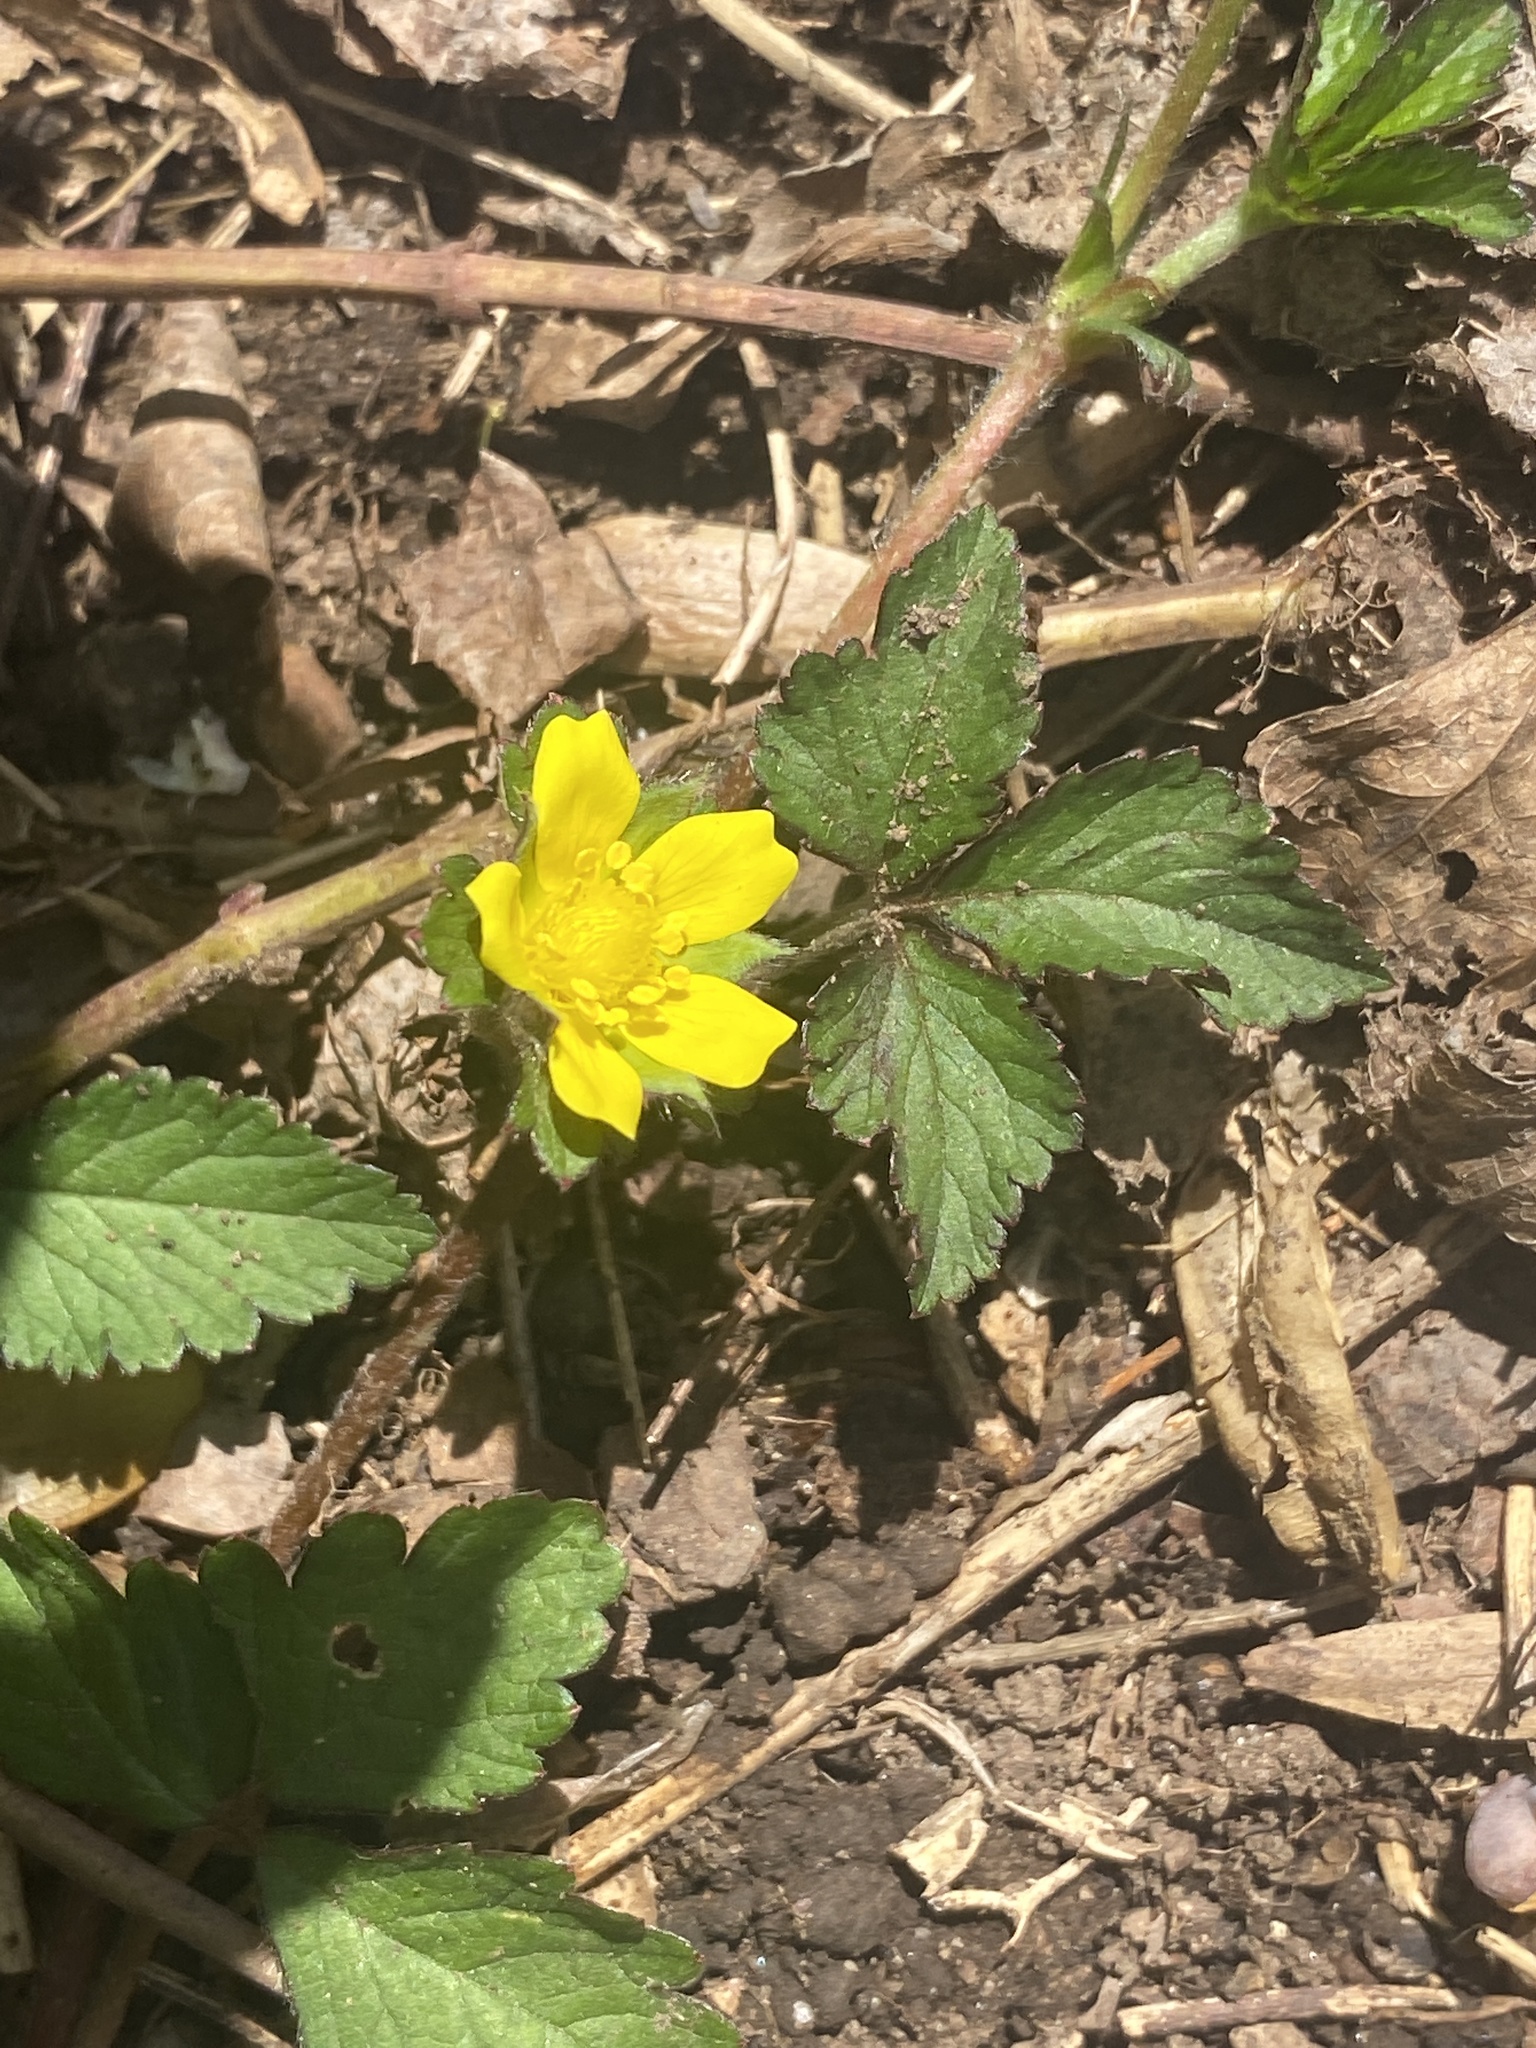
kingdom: Plantae
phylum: Tracheophyta
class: Magnoliopsida
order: Rosales
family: Rosaceae
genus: Potentilla
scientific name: Potentilla indica
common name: Yellow-flowered strawberry
